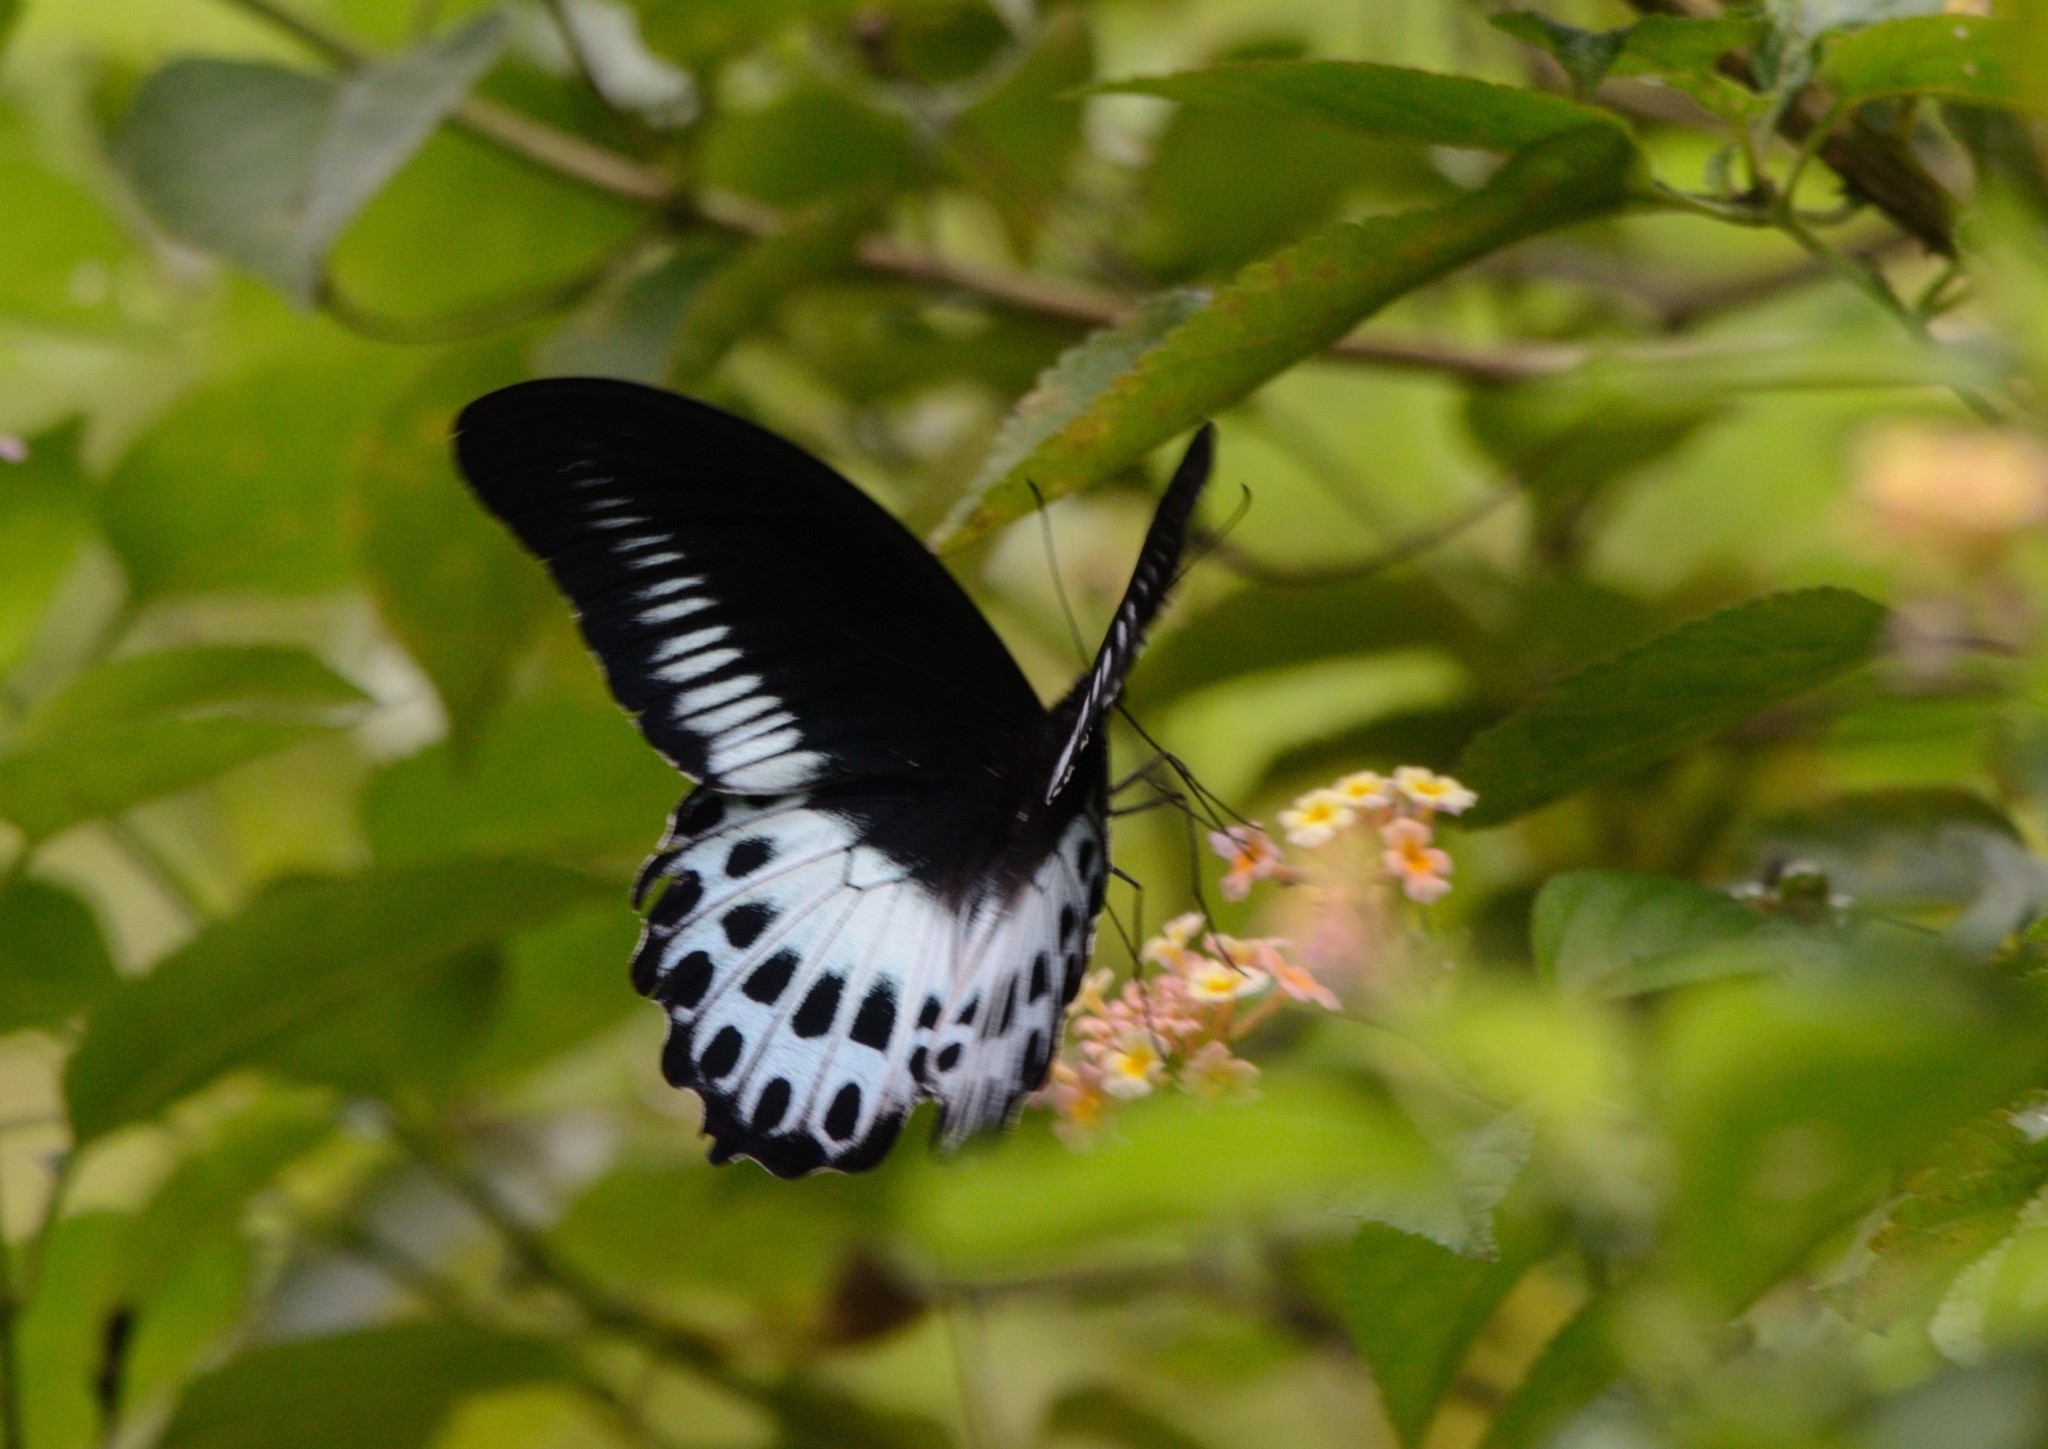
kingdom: Animalia
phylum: Arthropoda
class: Insecta
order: Lepidoptera
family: Papilionidae
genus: Papilio
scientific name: Papilio memnon
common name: Great mormon
